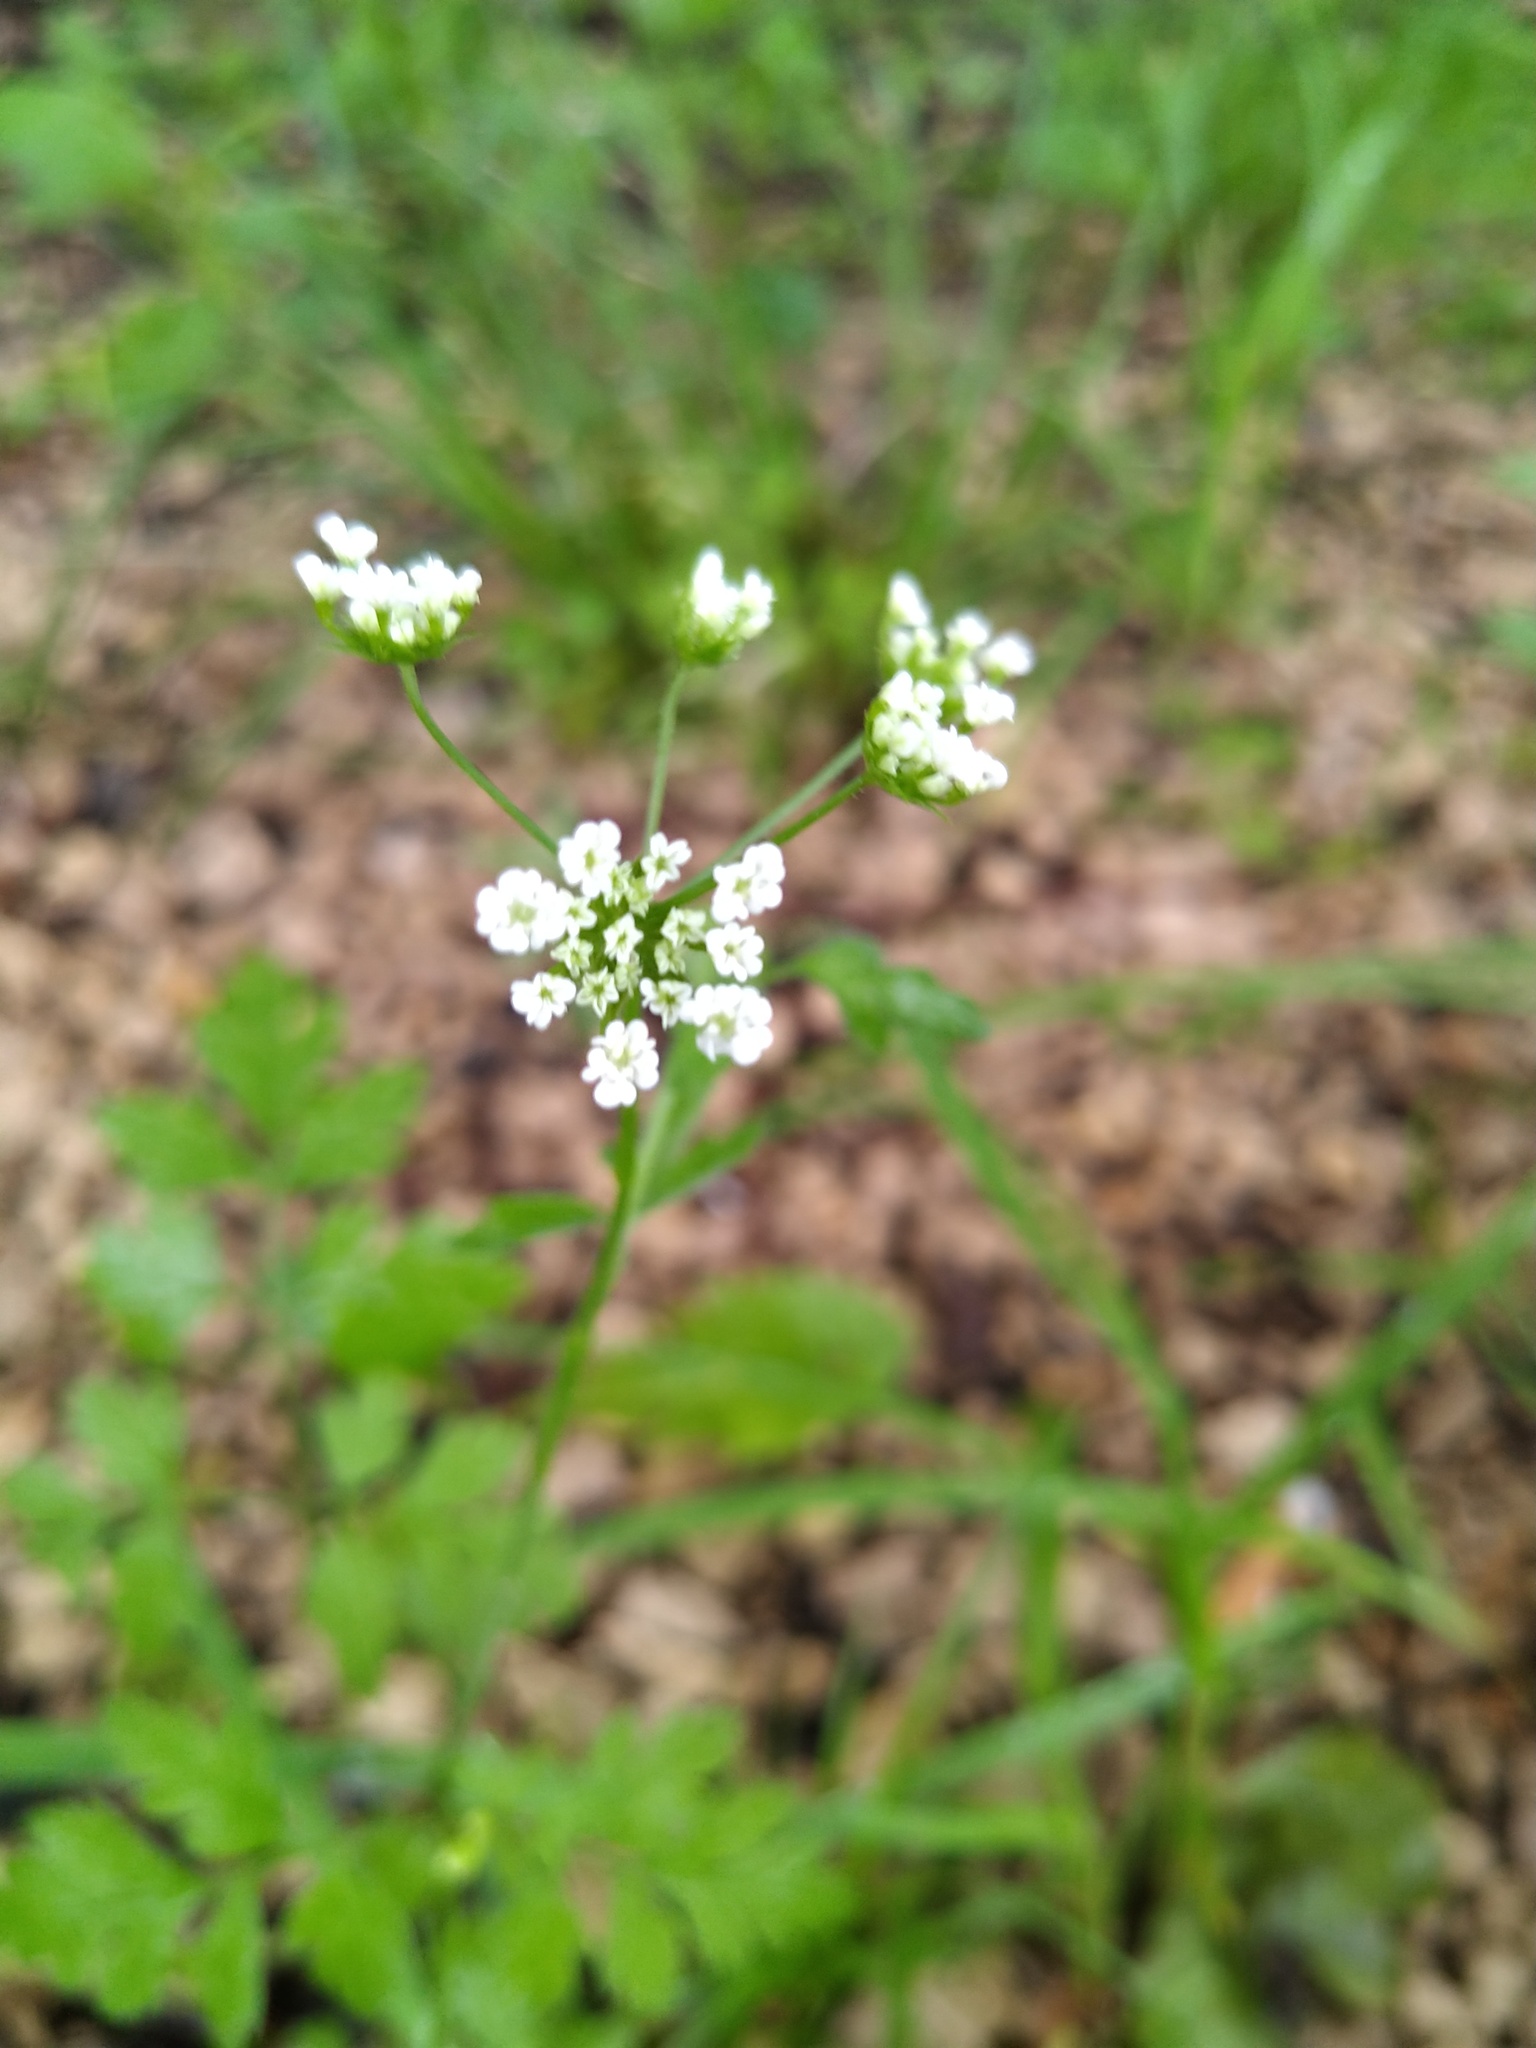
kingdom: Plantae
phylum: Tracheophyta
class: Magnoliopsida
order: Apiales
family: Apiaceae
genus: Chaerophyllum
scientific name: Chaerophyllum temulum
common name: Rough chervil
